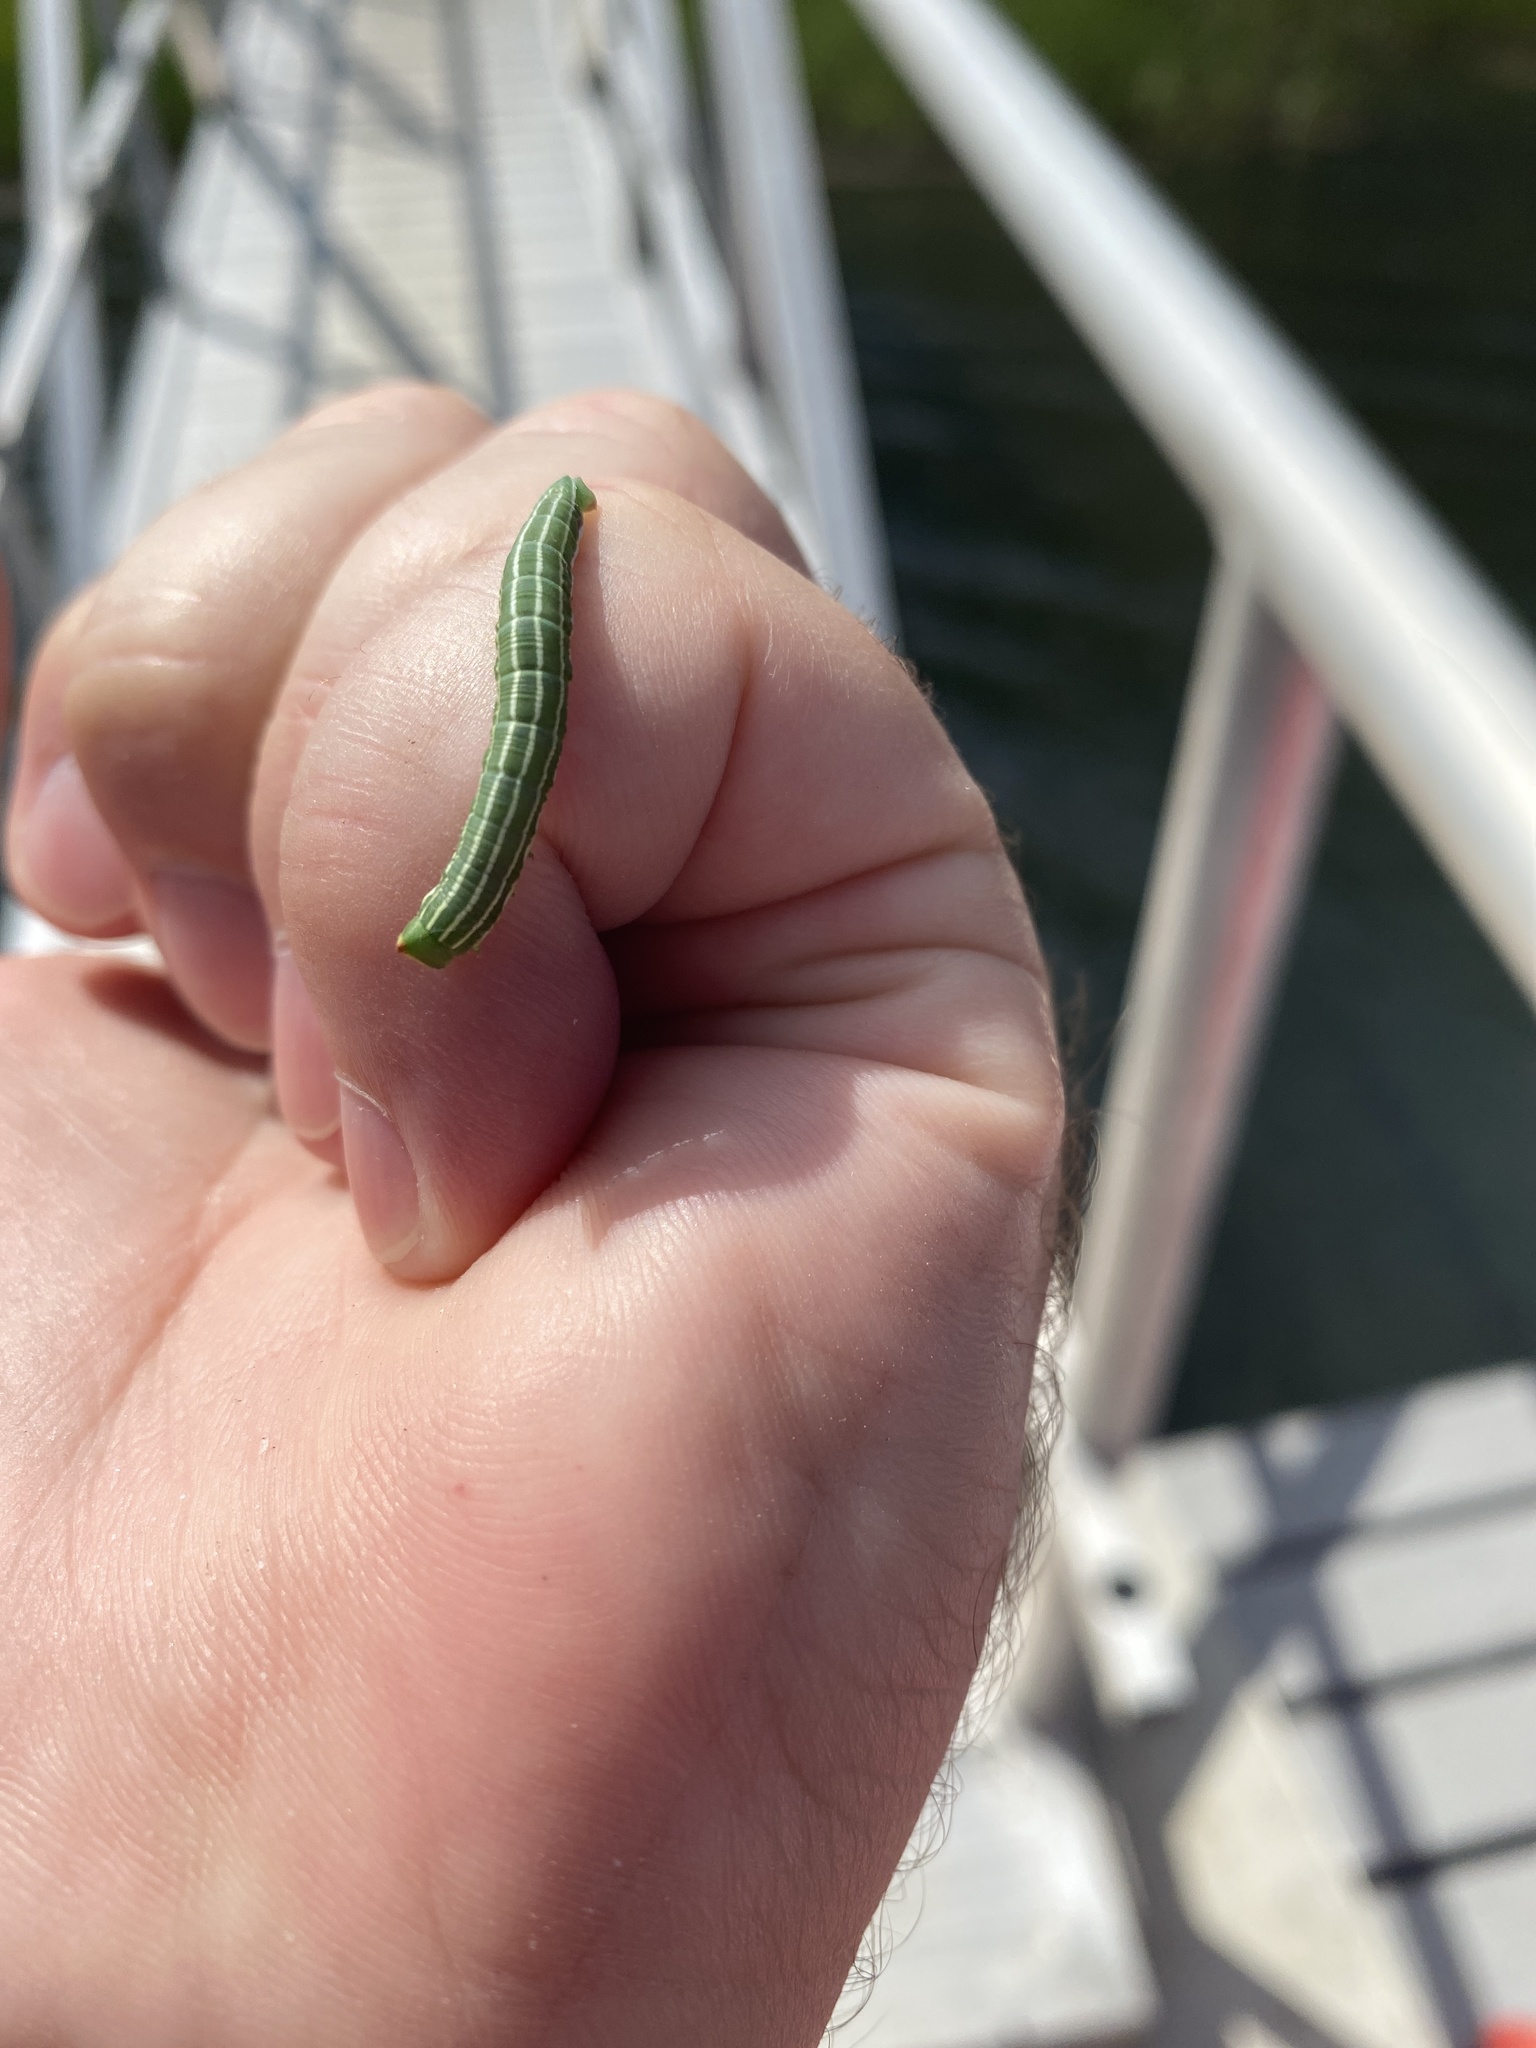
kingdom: Animalia
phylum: Arthropoda
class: Insecta
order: Lepidoptera
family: Sphingidae
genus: Lapara
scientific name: Lapara bombycoides
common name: Northern pine sphinx
